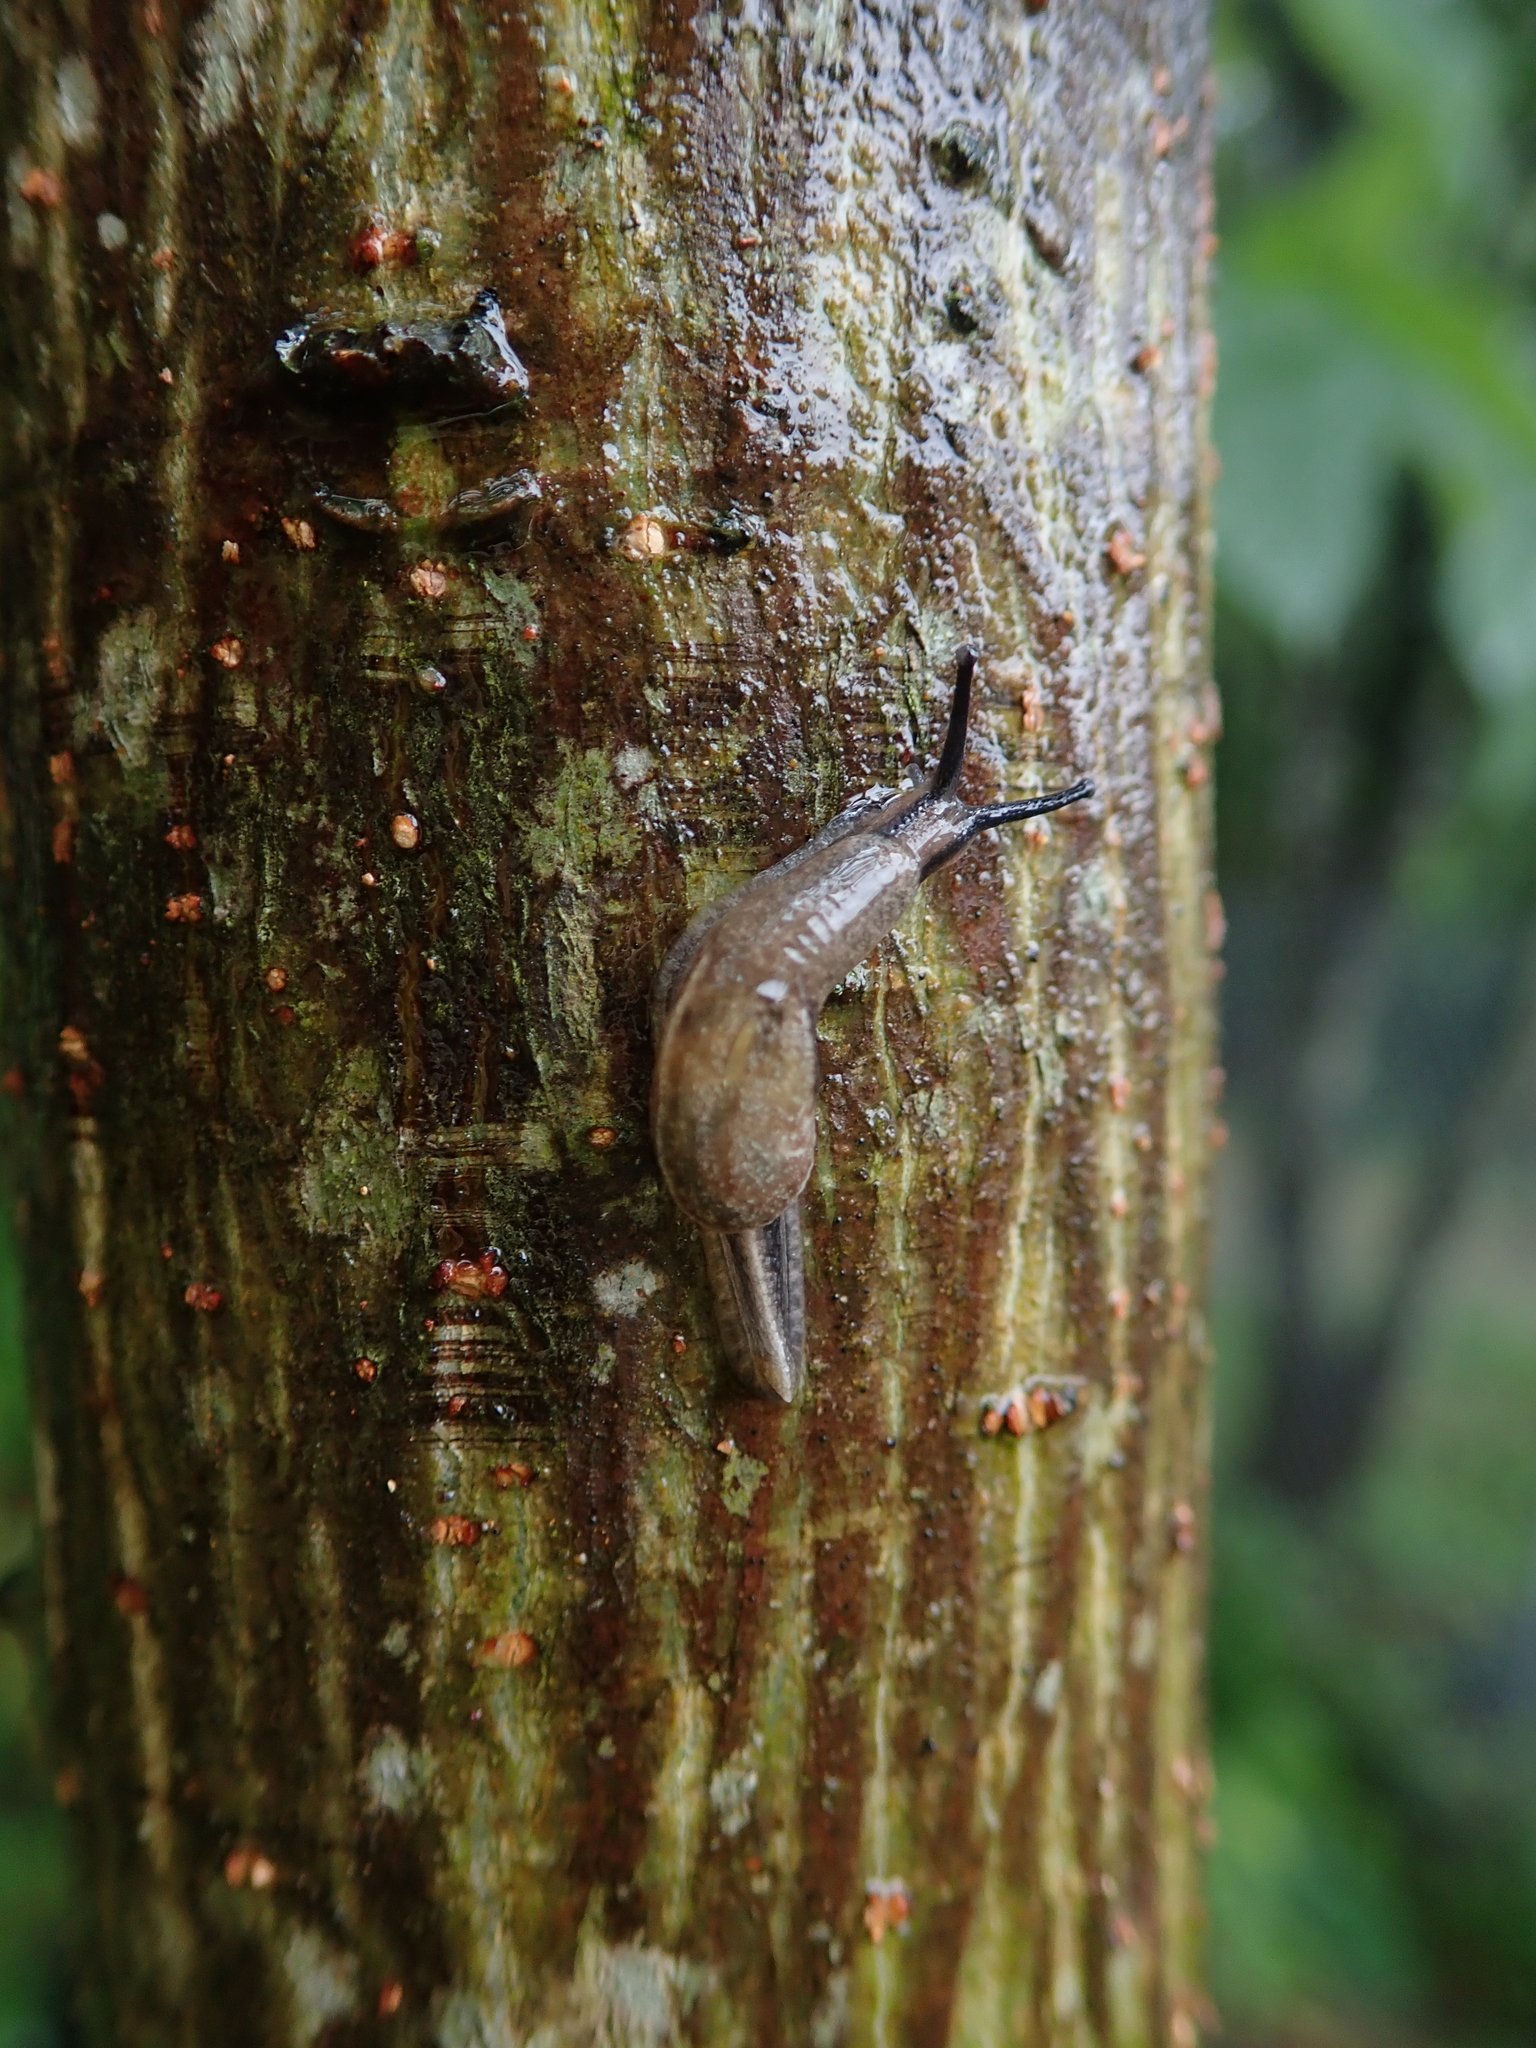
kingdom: Animalia
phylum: Mollusca
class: Gastropoda
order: Stylommatophora
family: Ariophantidae
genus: Parmarion
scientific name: Parmarion martensi
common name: Semi-slug
